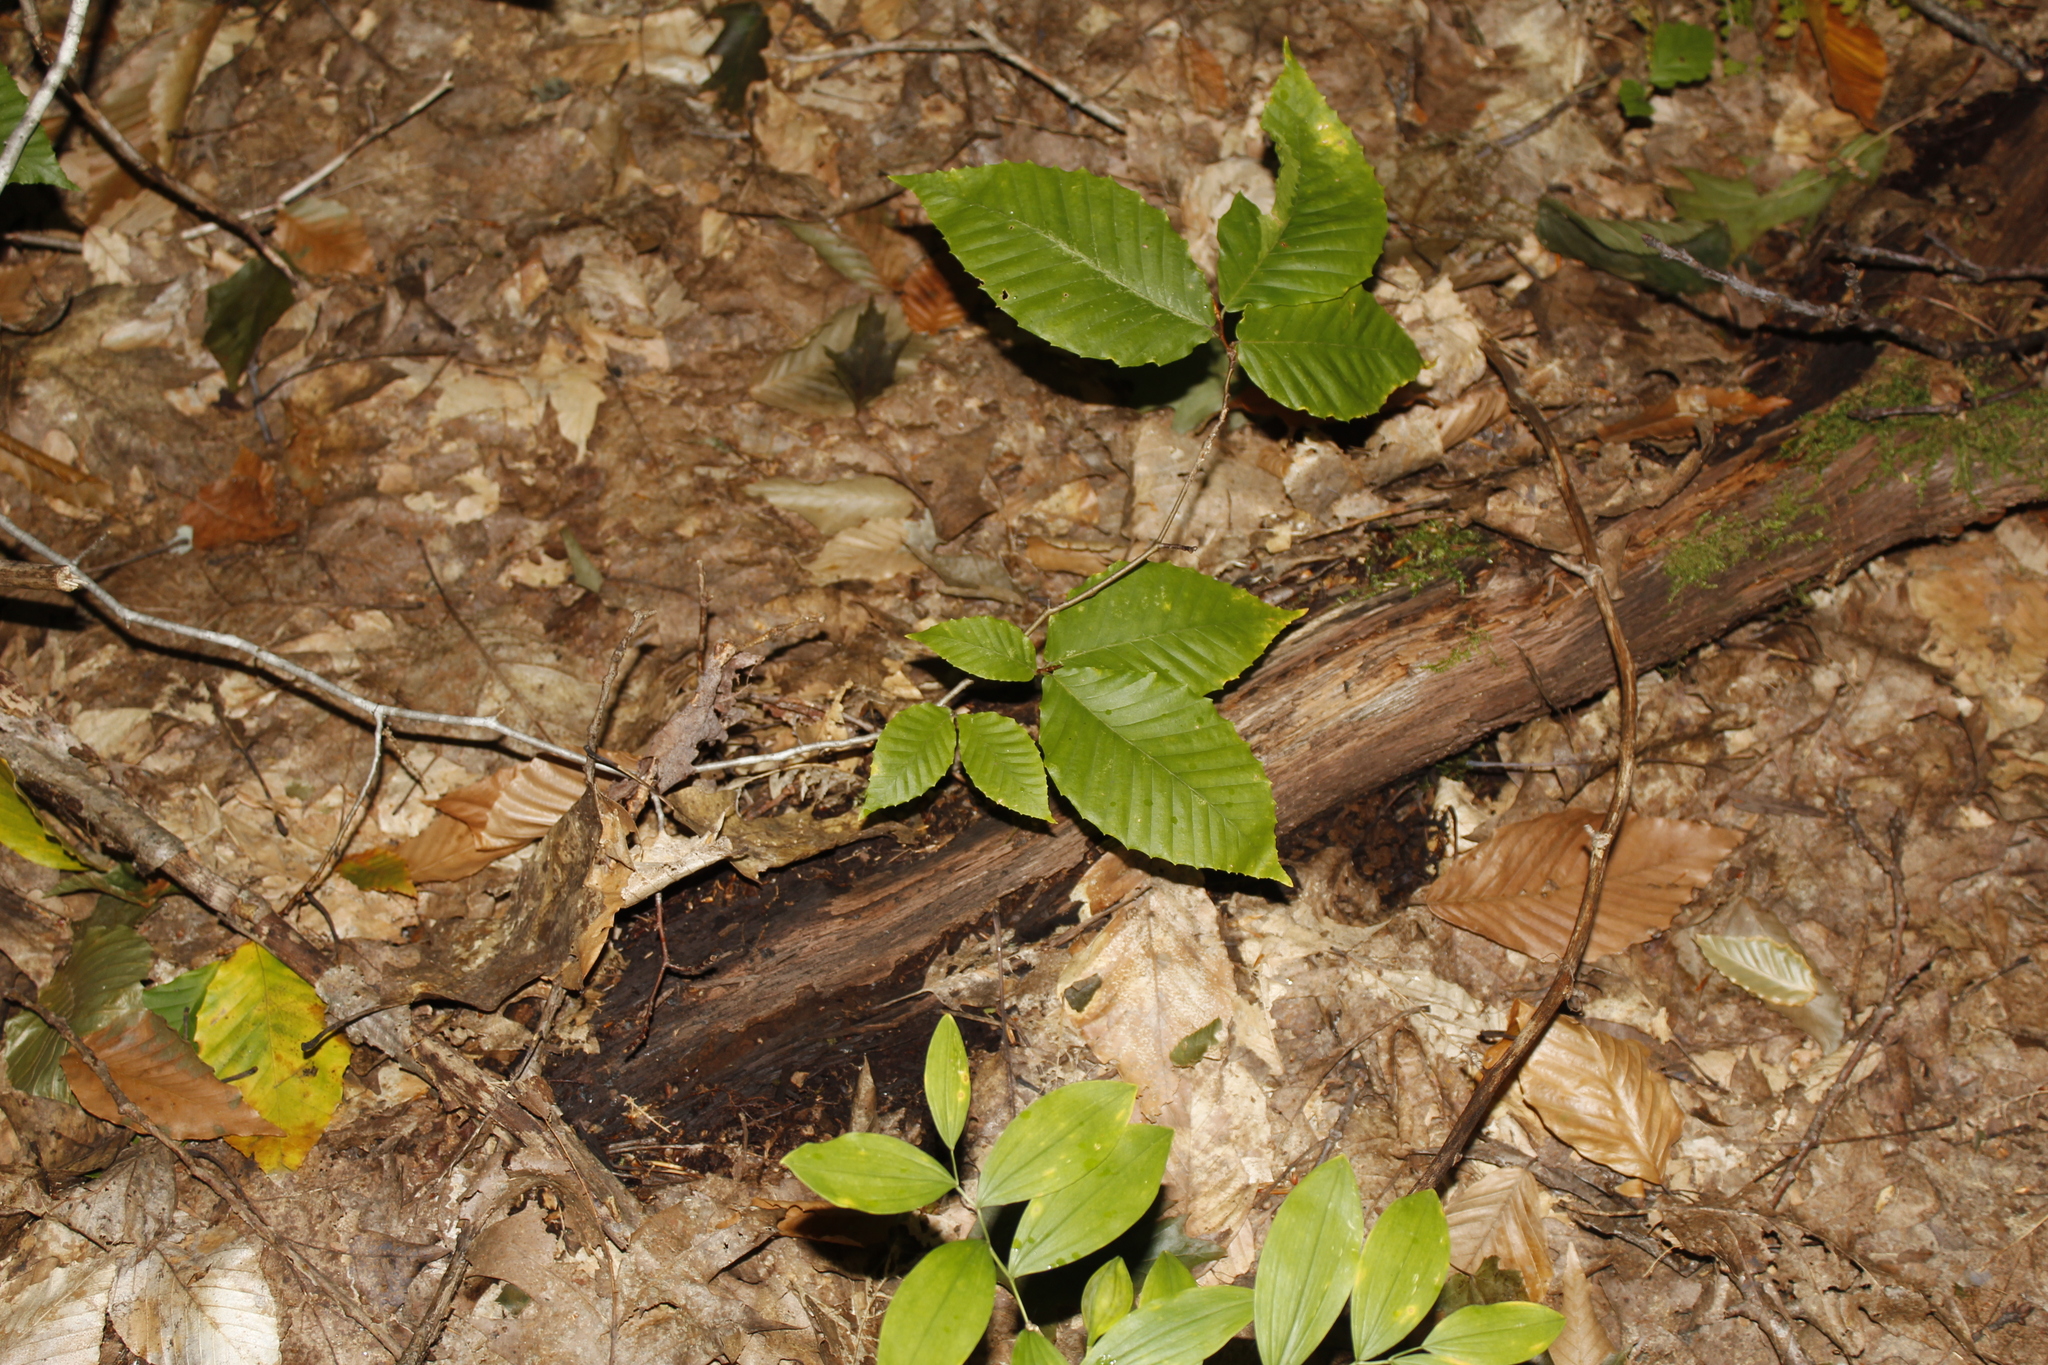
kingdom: Plantae
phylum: Tracheophyta
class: Magnoliopsida
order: Fagales
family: Fagaceae
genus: Fagus
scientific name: Fagus grandifolia
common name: American beech
